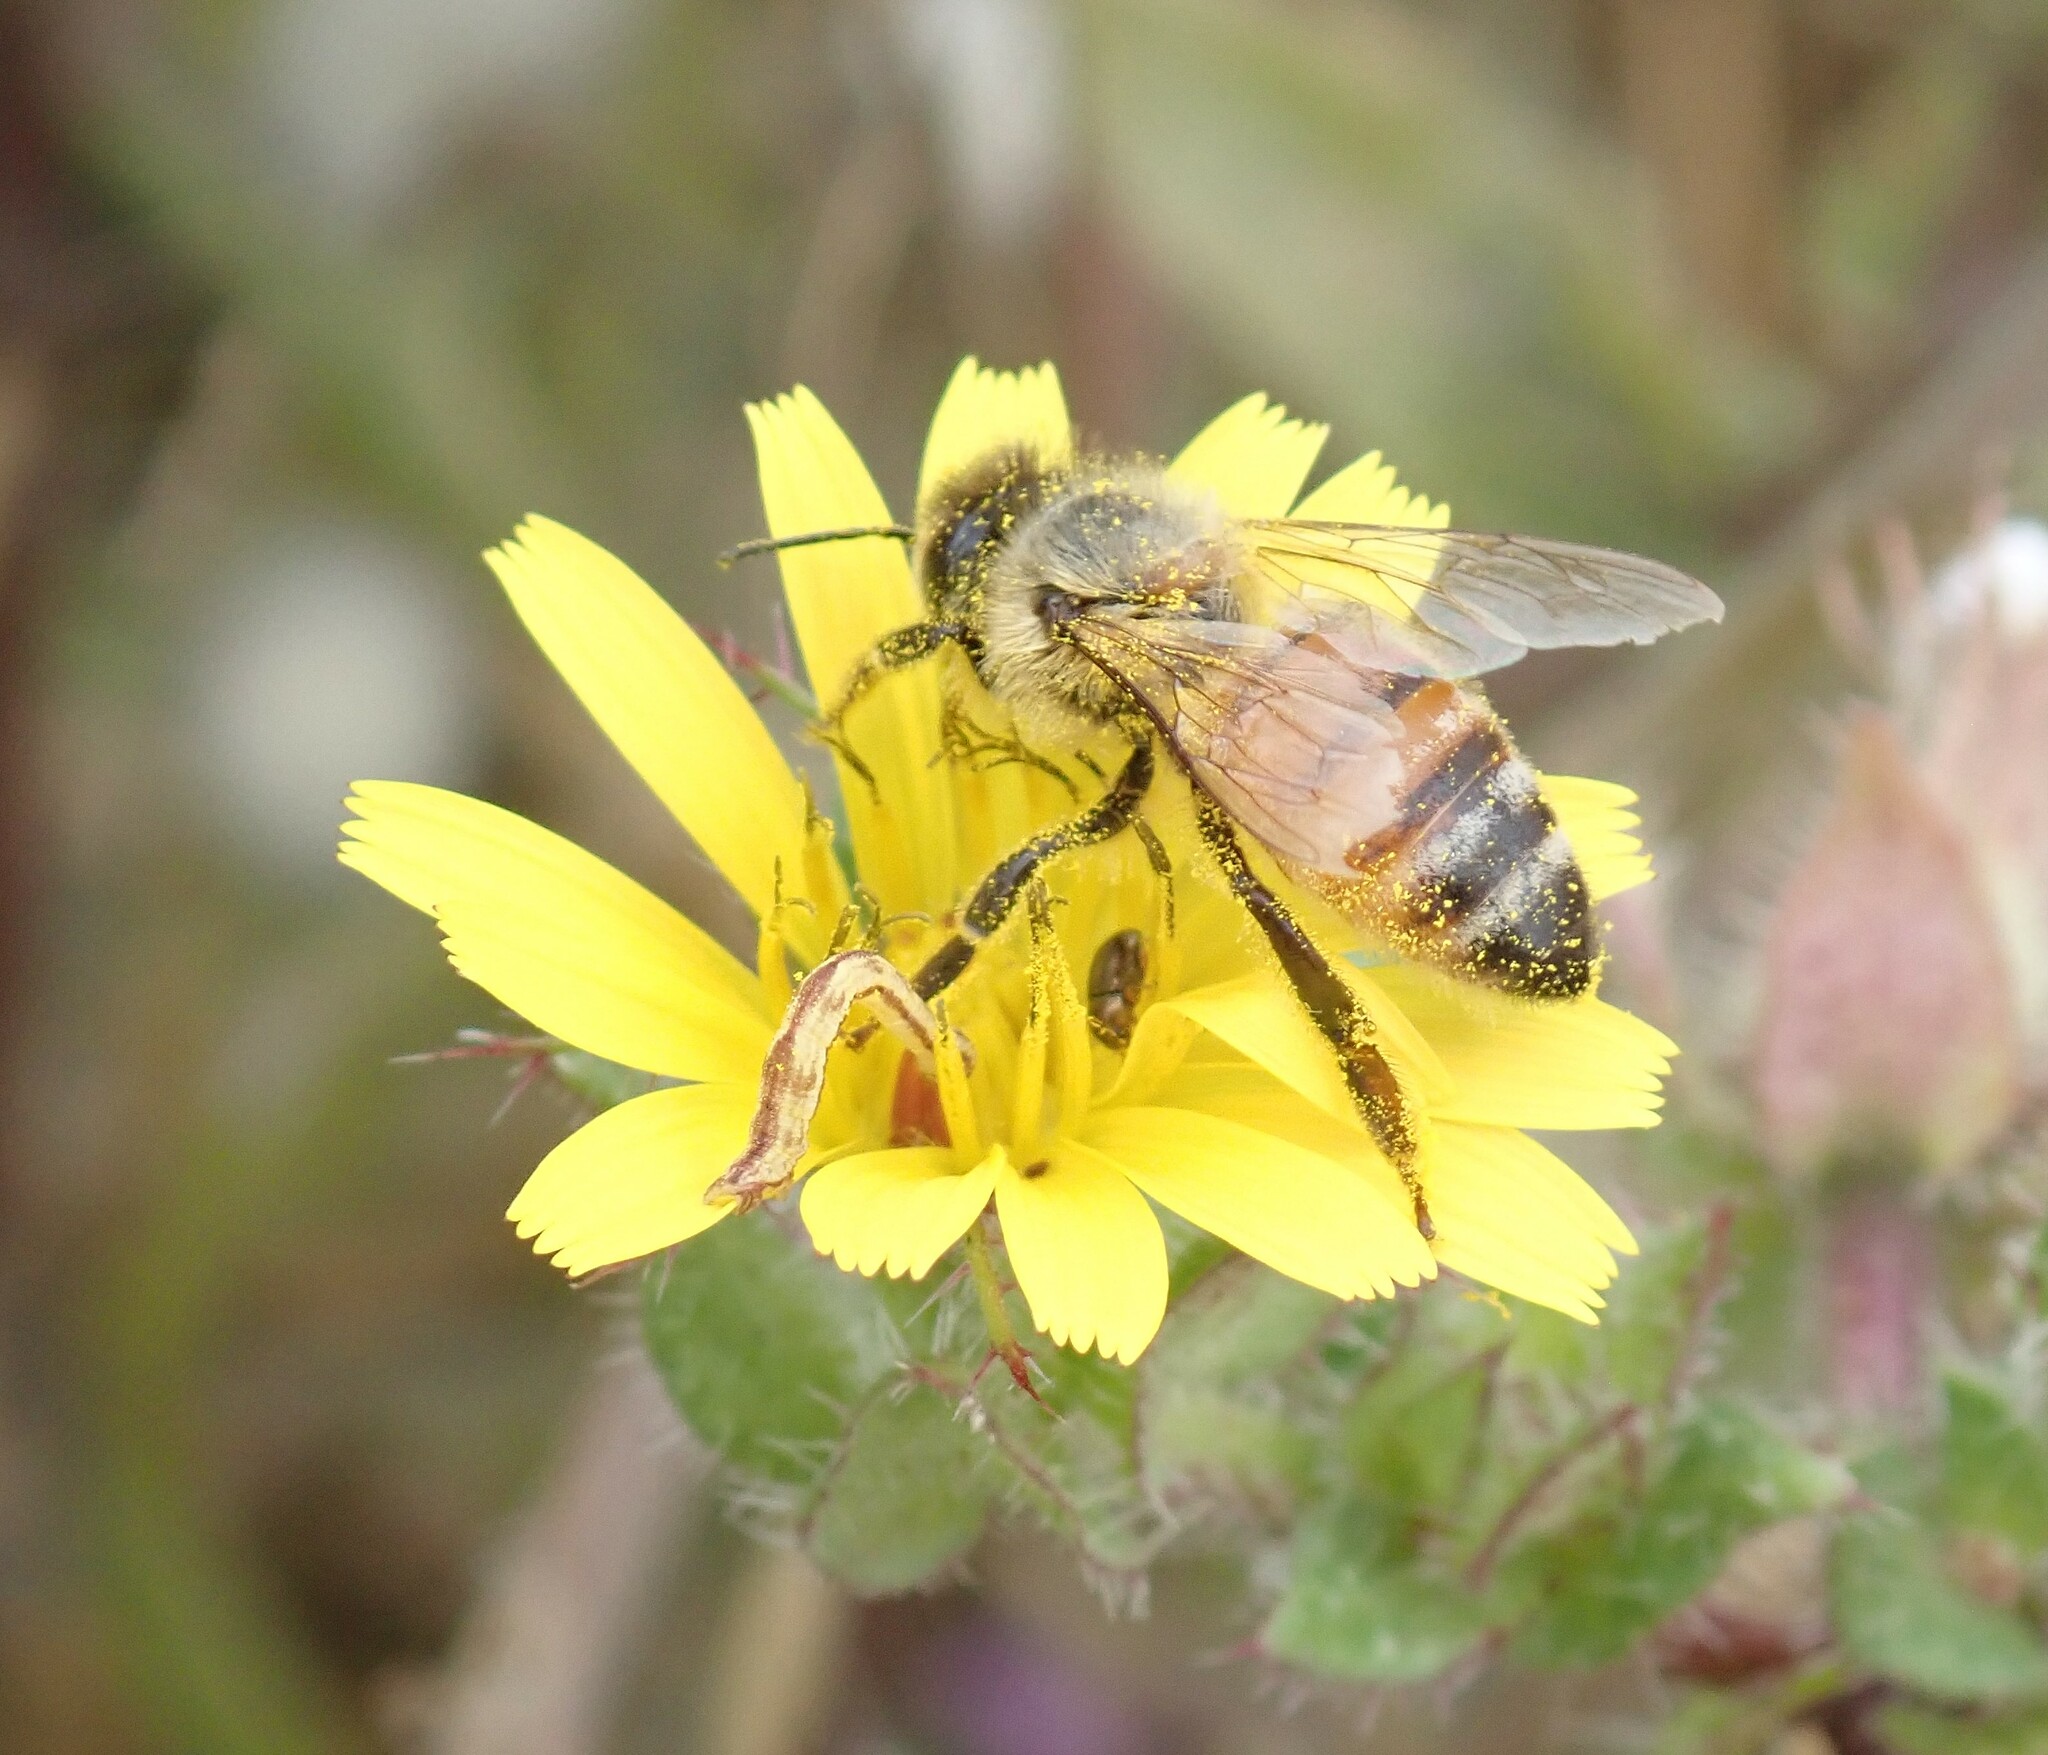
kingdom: Animalia
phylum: Arthropoda
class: Insecta
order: Hymenoptera
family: Apidae
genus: Apis
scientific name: Apis mellifera
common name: Honey bee
